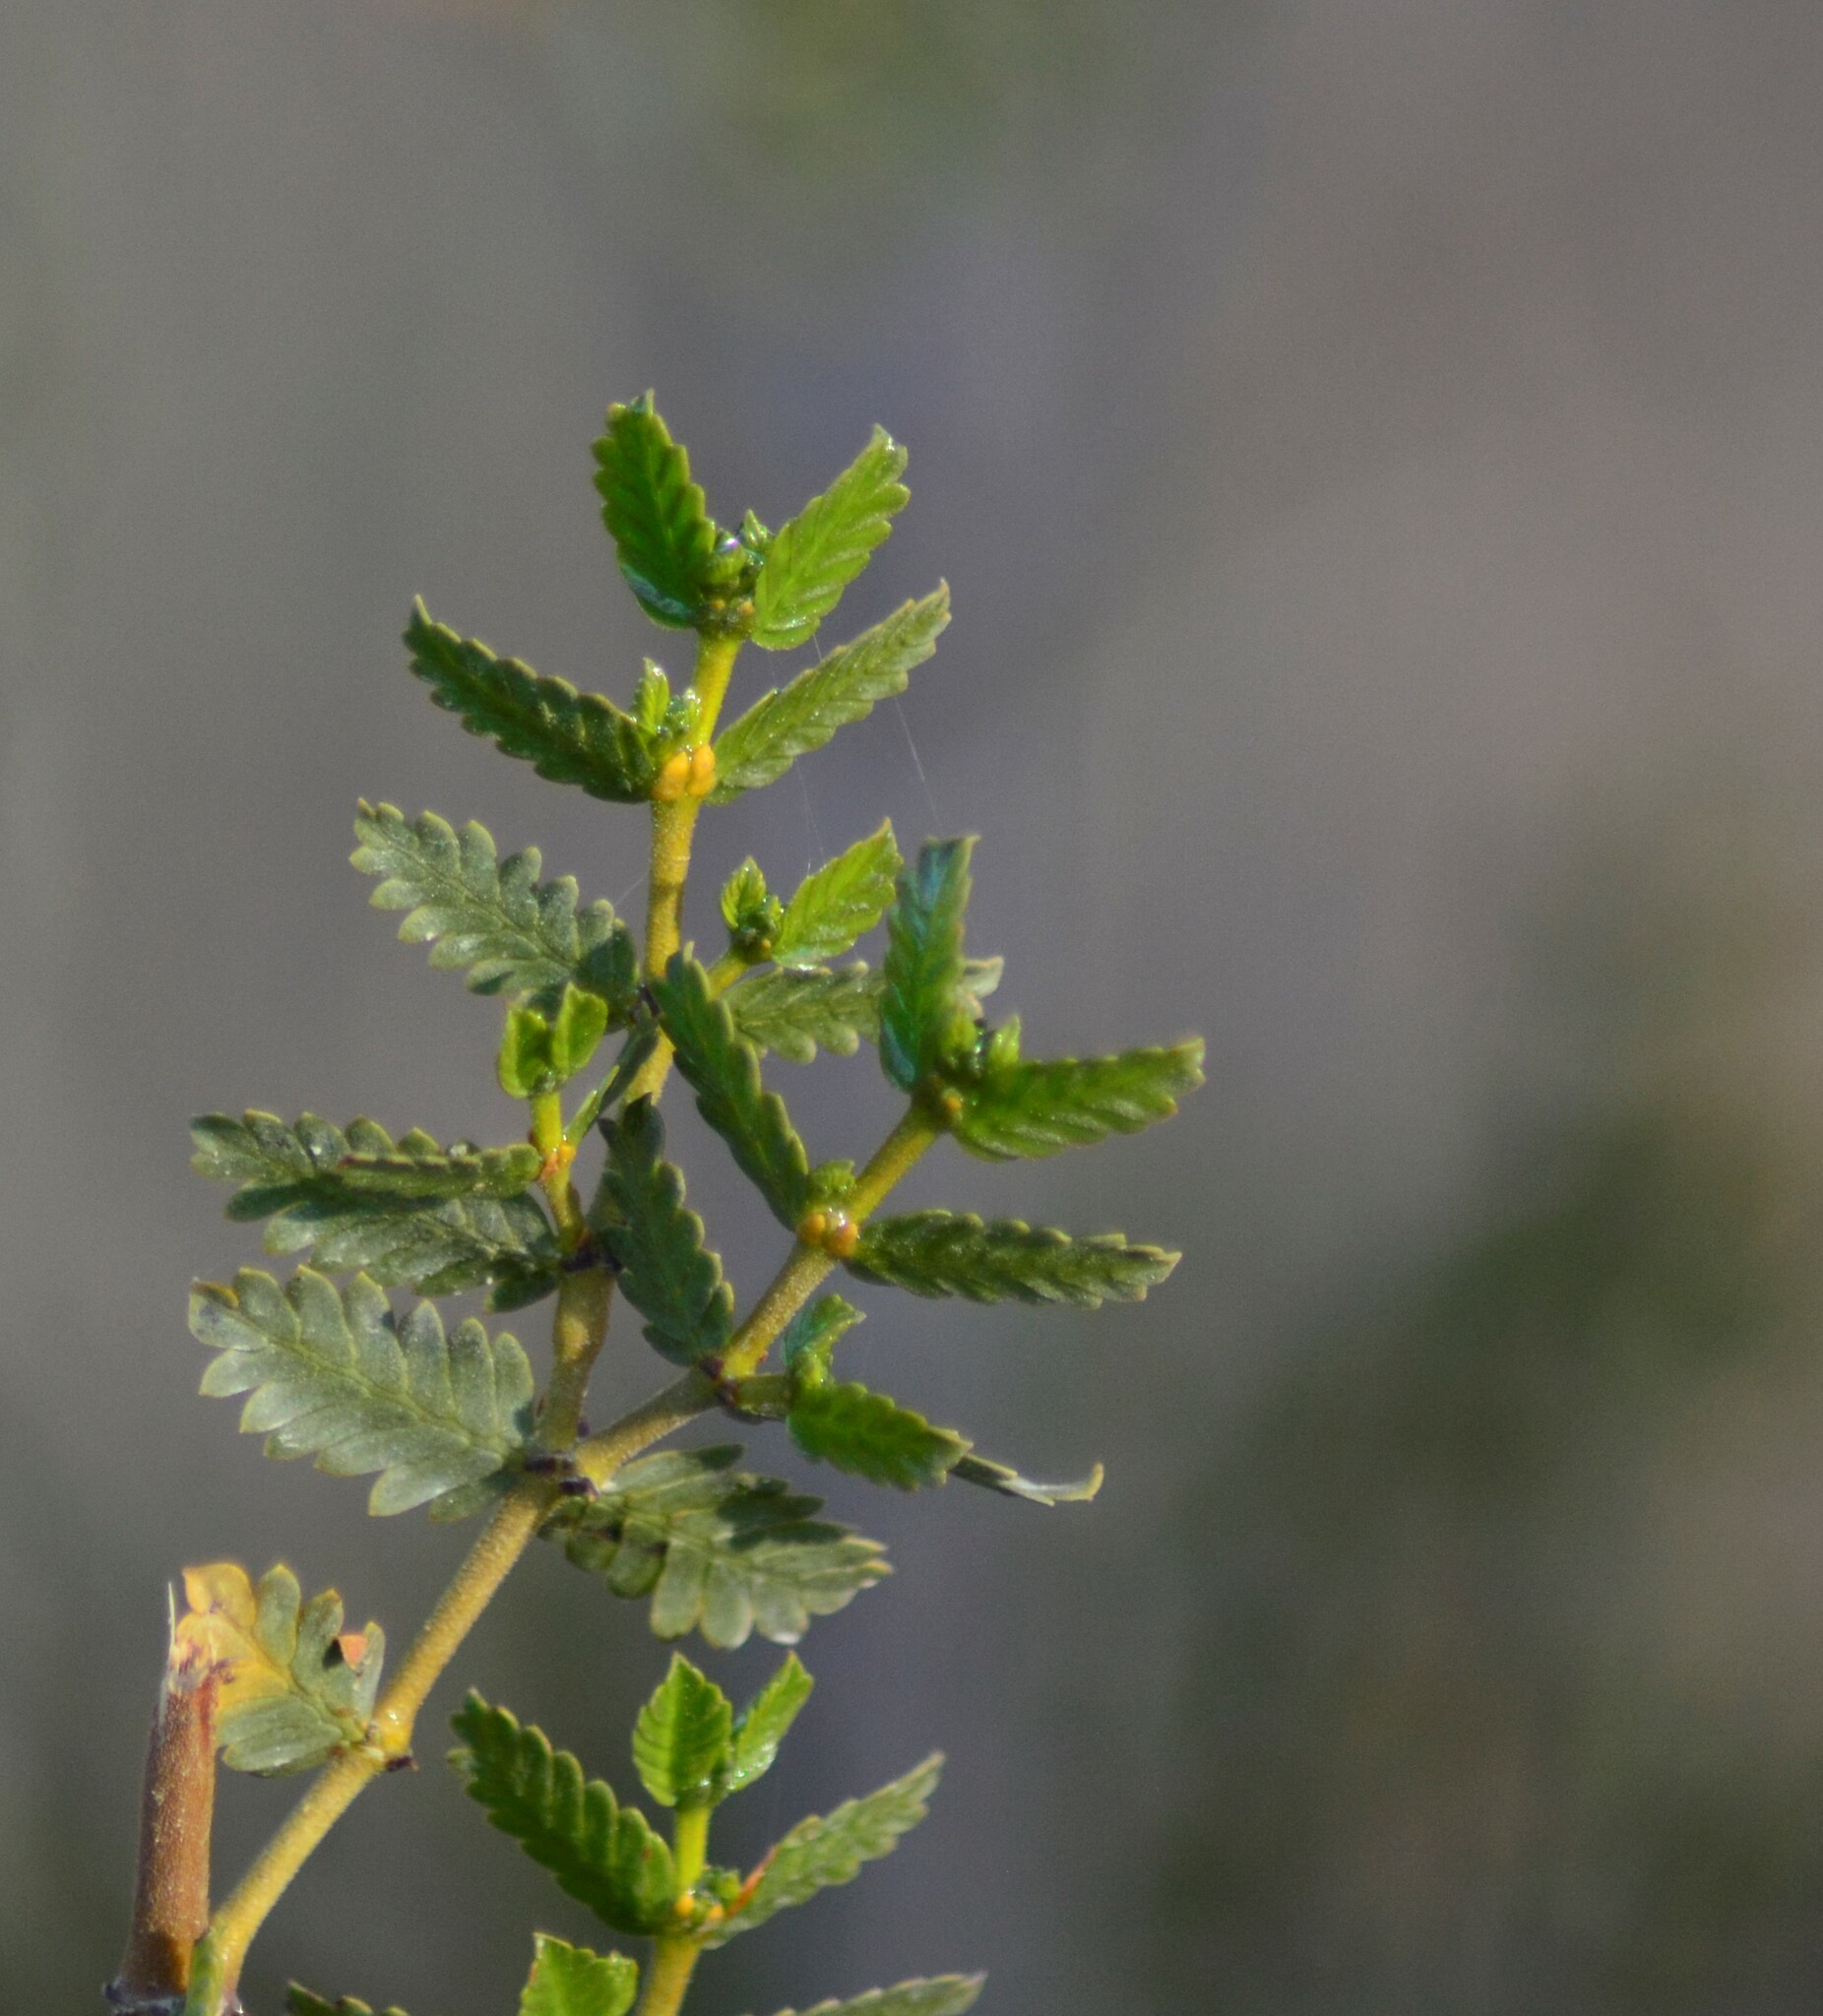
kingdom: Plantae
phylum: Tracheophyta
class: Magnoliopsida
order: Zygophyllales
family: Zygophyllaceae
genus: Larrea
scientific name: Larrea nitida
